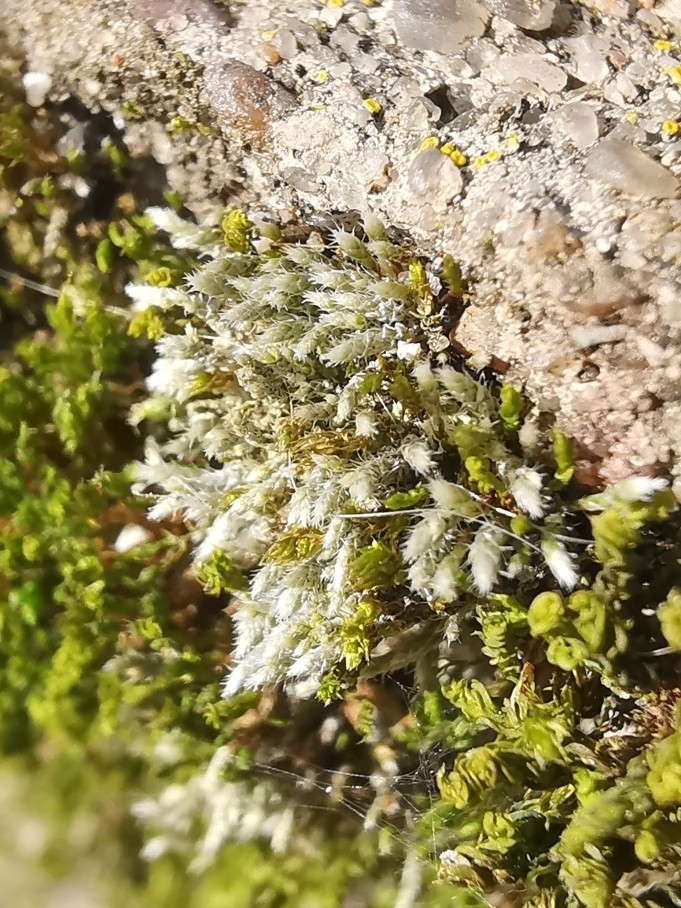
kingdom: Plantae
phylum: Bryophyta
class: Bryopsida
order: Bryales
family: Bryaceae
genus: Bryum
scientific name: Bryum argenteum
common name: Silver-moss
